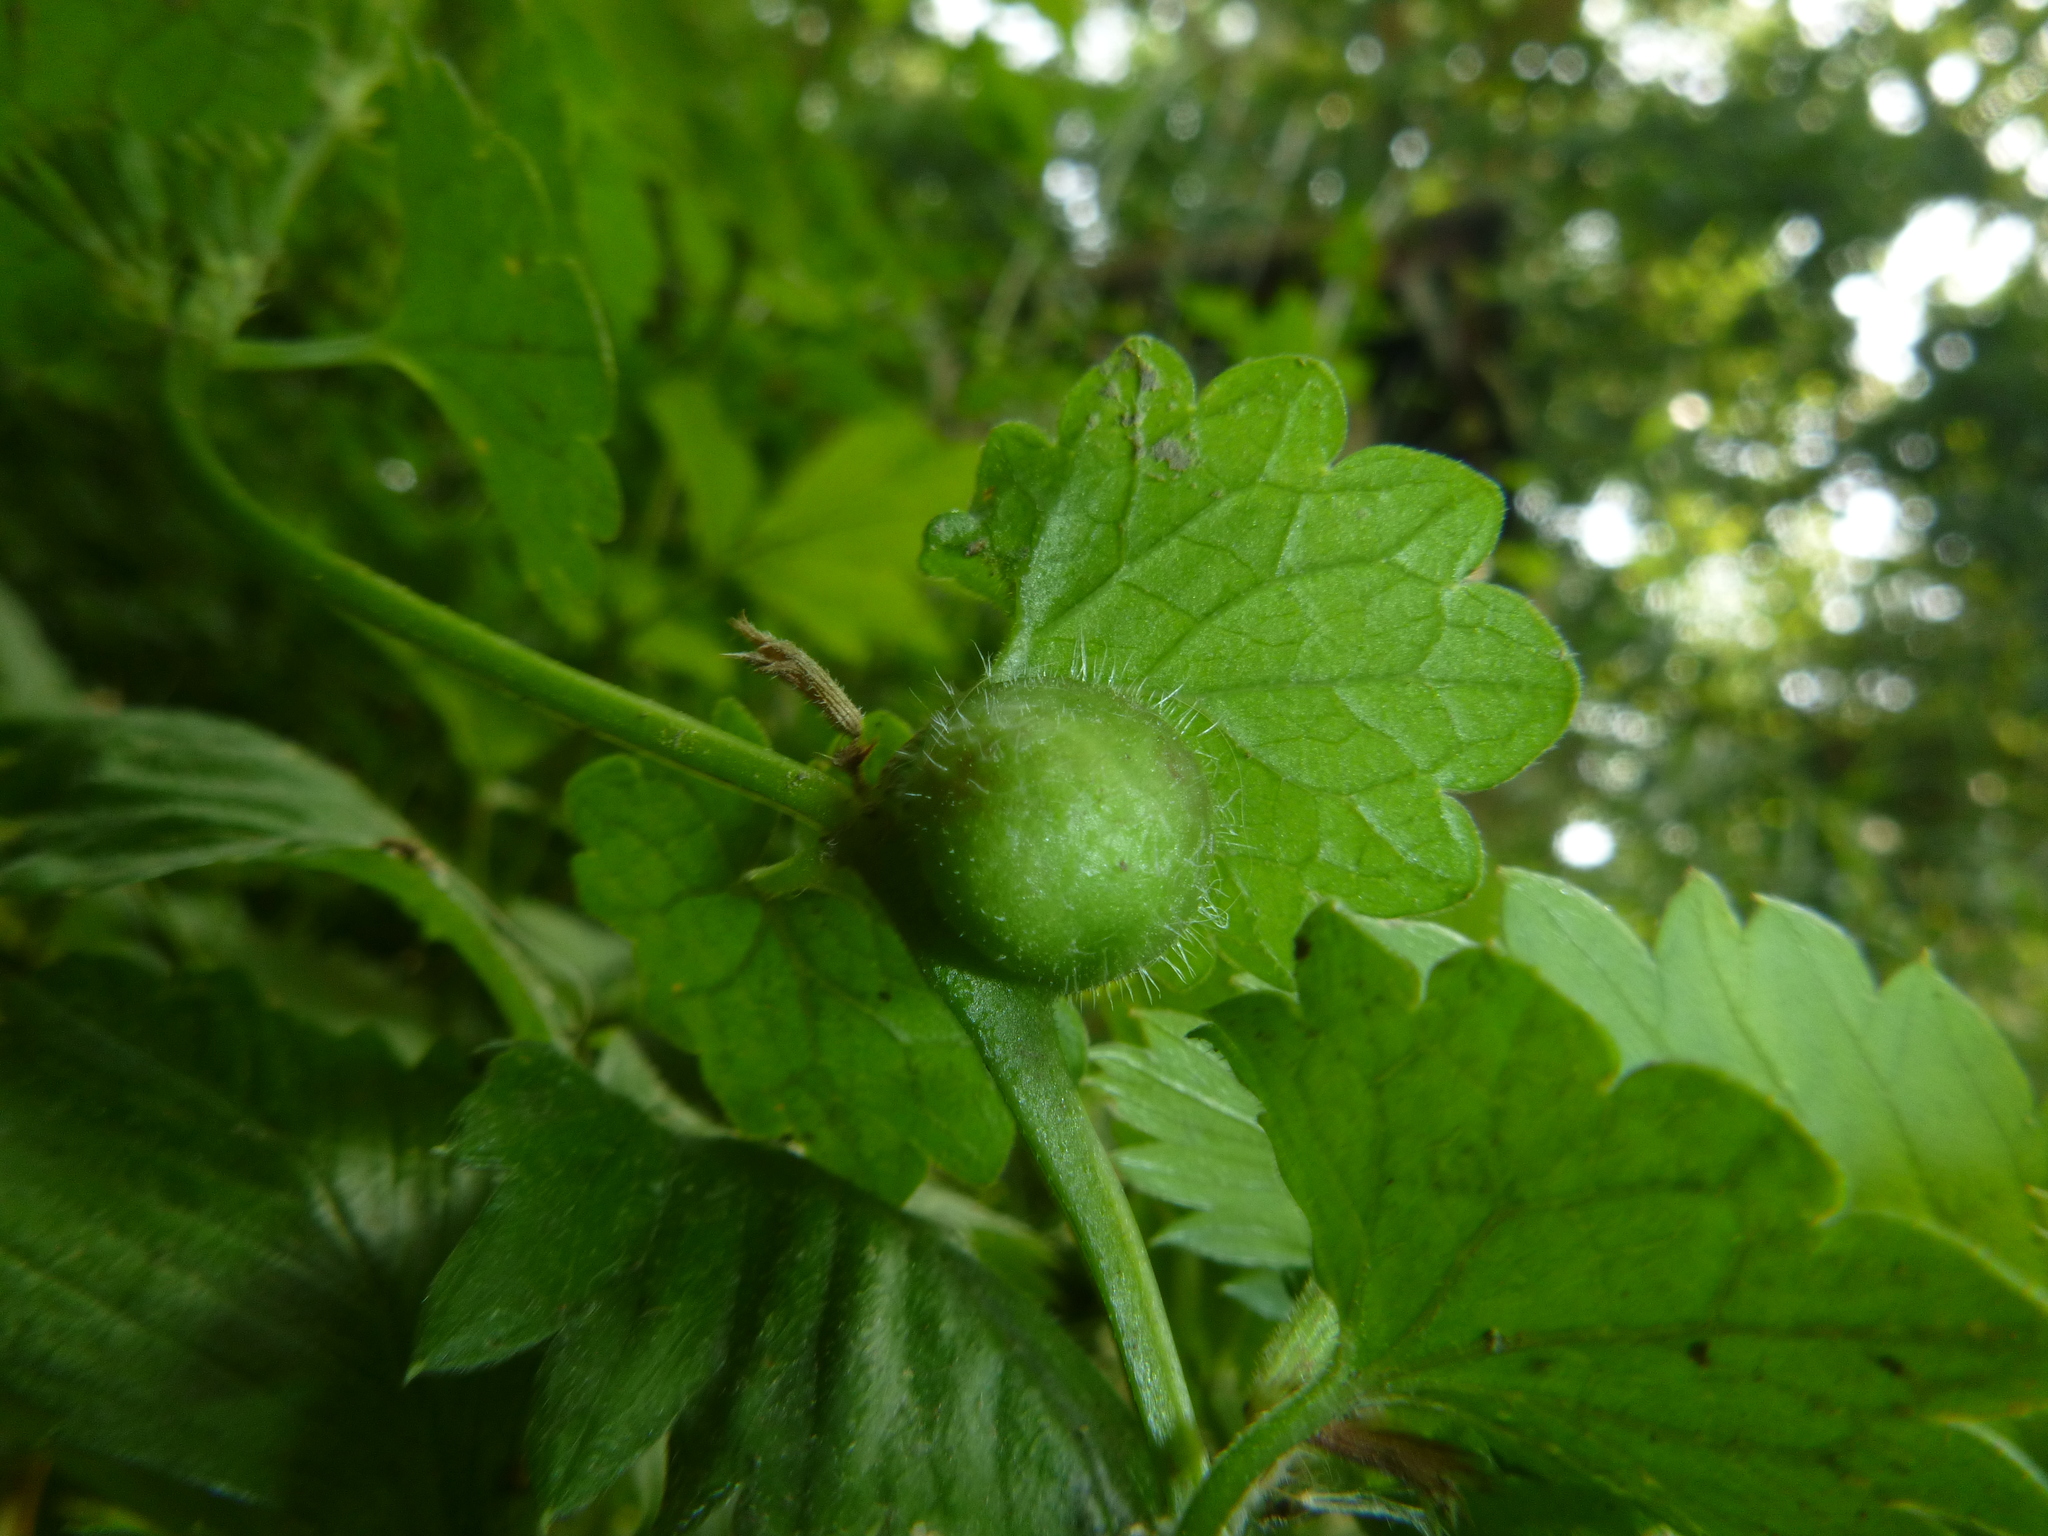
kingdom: Animalia
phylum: Arthropoda
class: Insecta
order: Hymenoptera
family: Cynipidae
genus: Liposthenes
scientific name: Liposthenes glechomae
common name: Gall wasp
